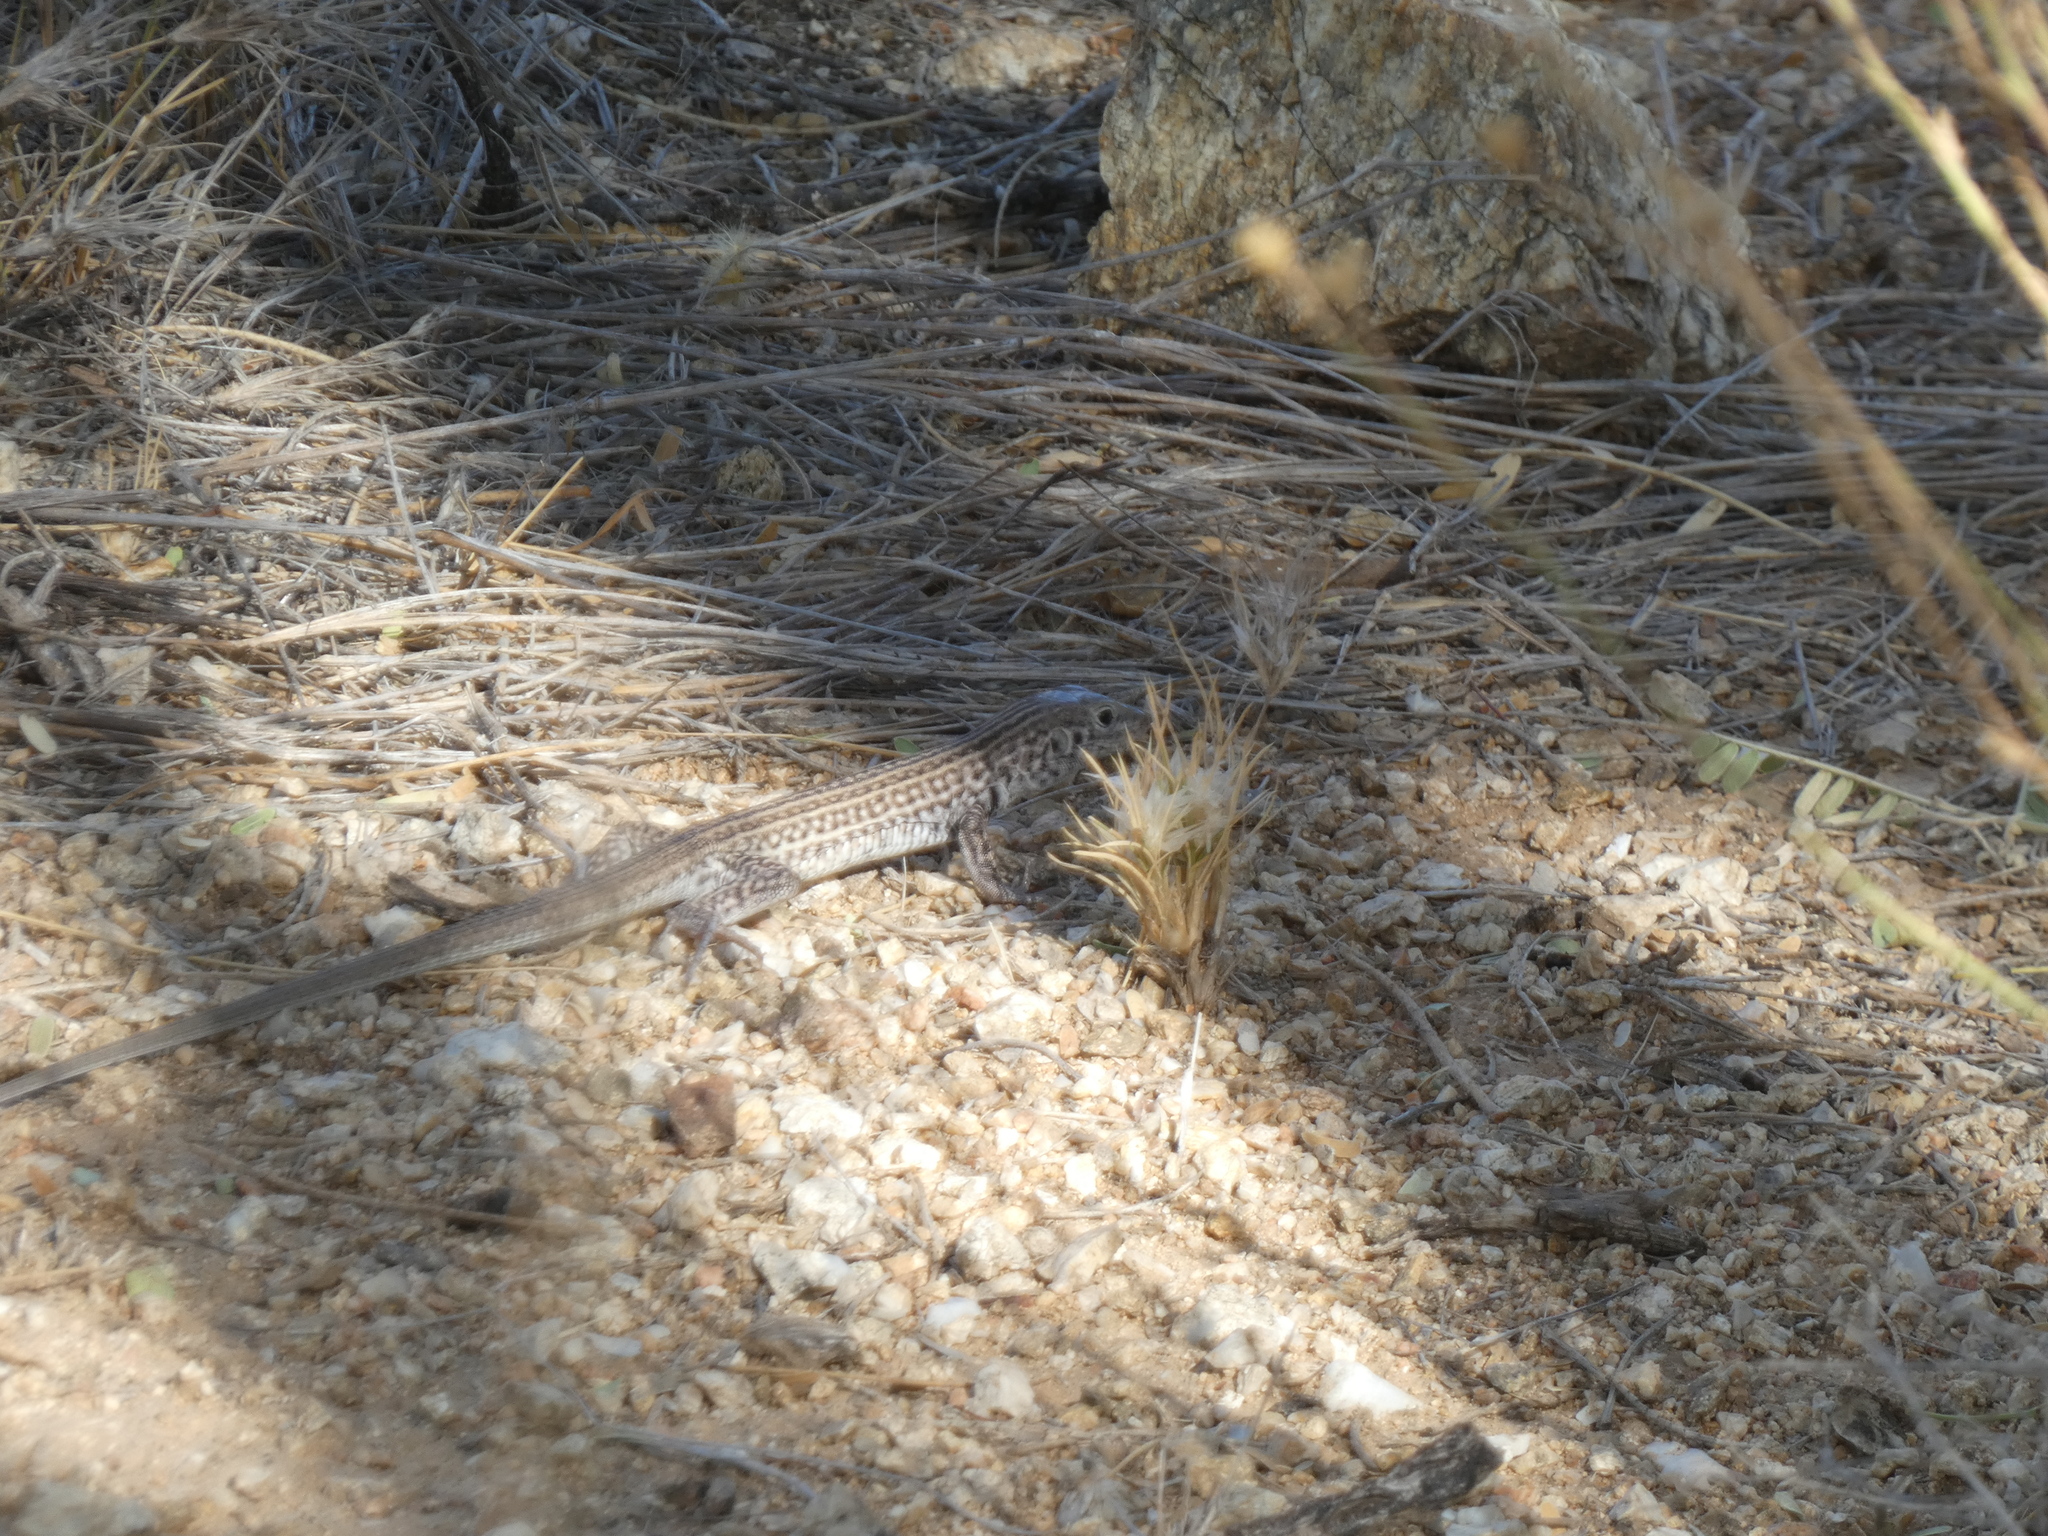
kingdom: Animalia
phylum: Chordata
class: Squamata
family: Teiidae
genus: Aspidoscelis
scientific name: Aspidoscelis tigris
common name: Tiger whiptail
